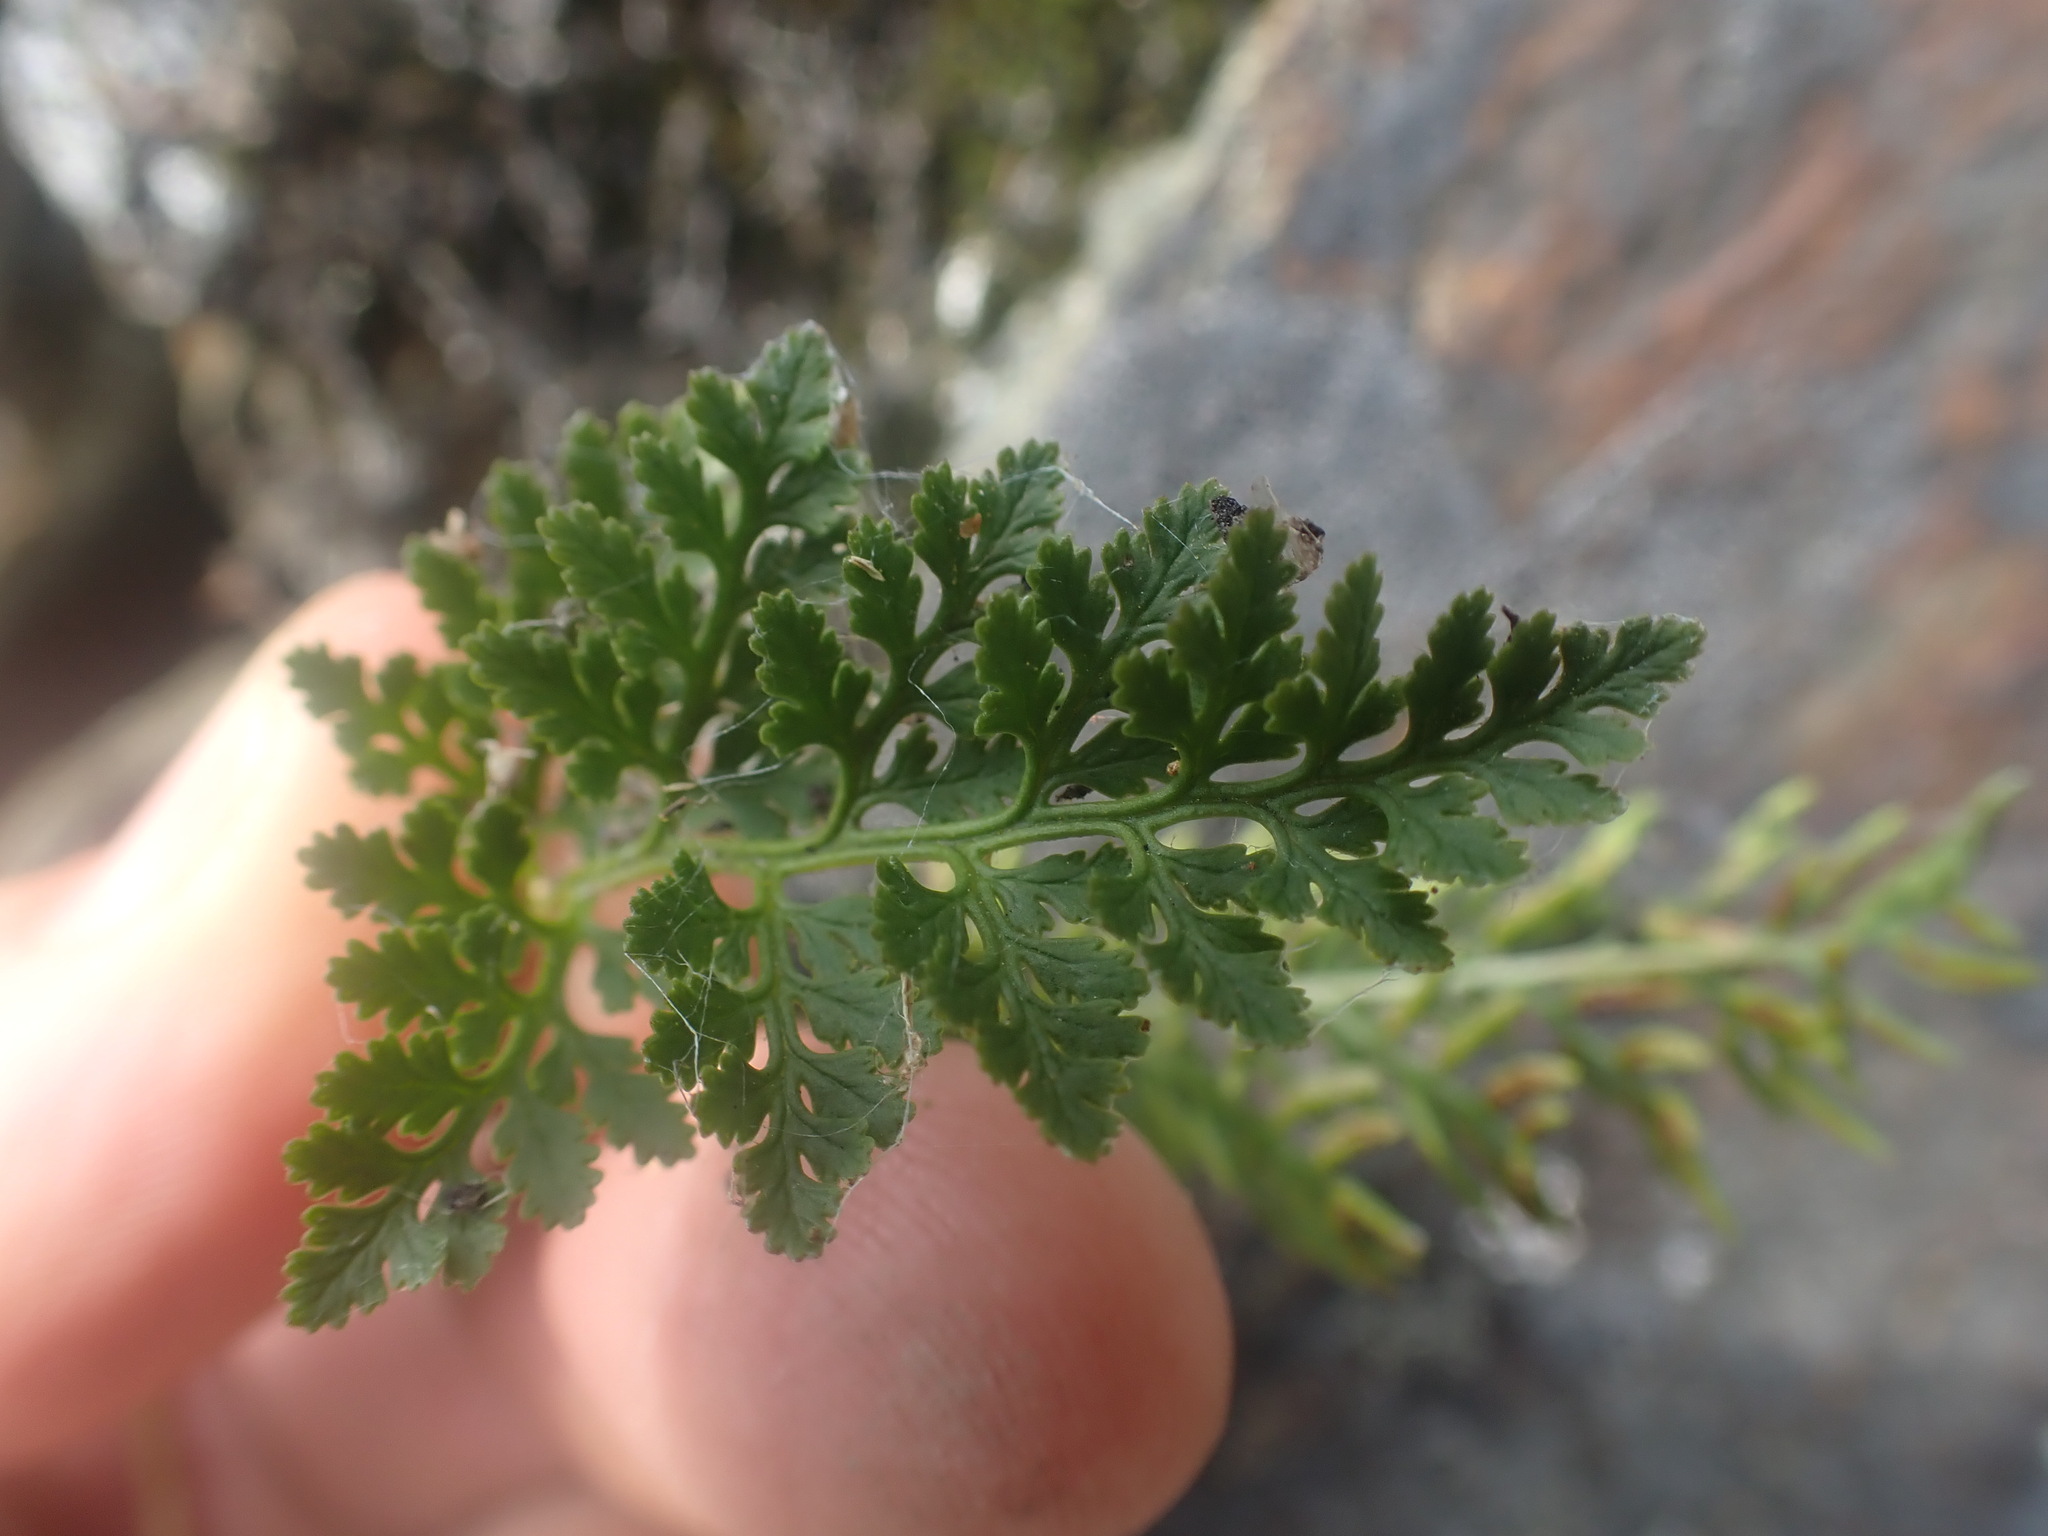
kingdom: Plantae
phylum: Tracheophyta
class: Polypodiopsida
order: Polypodiales
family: Pteridaceae
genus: Cryptogramma
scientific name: Cryptogramma acrostichoides
